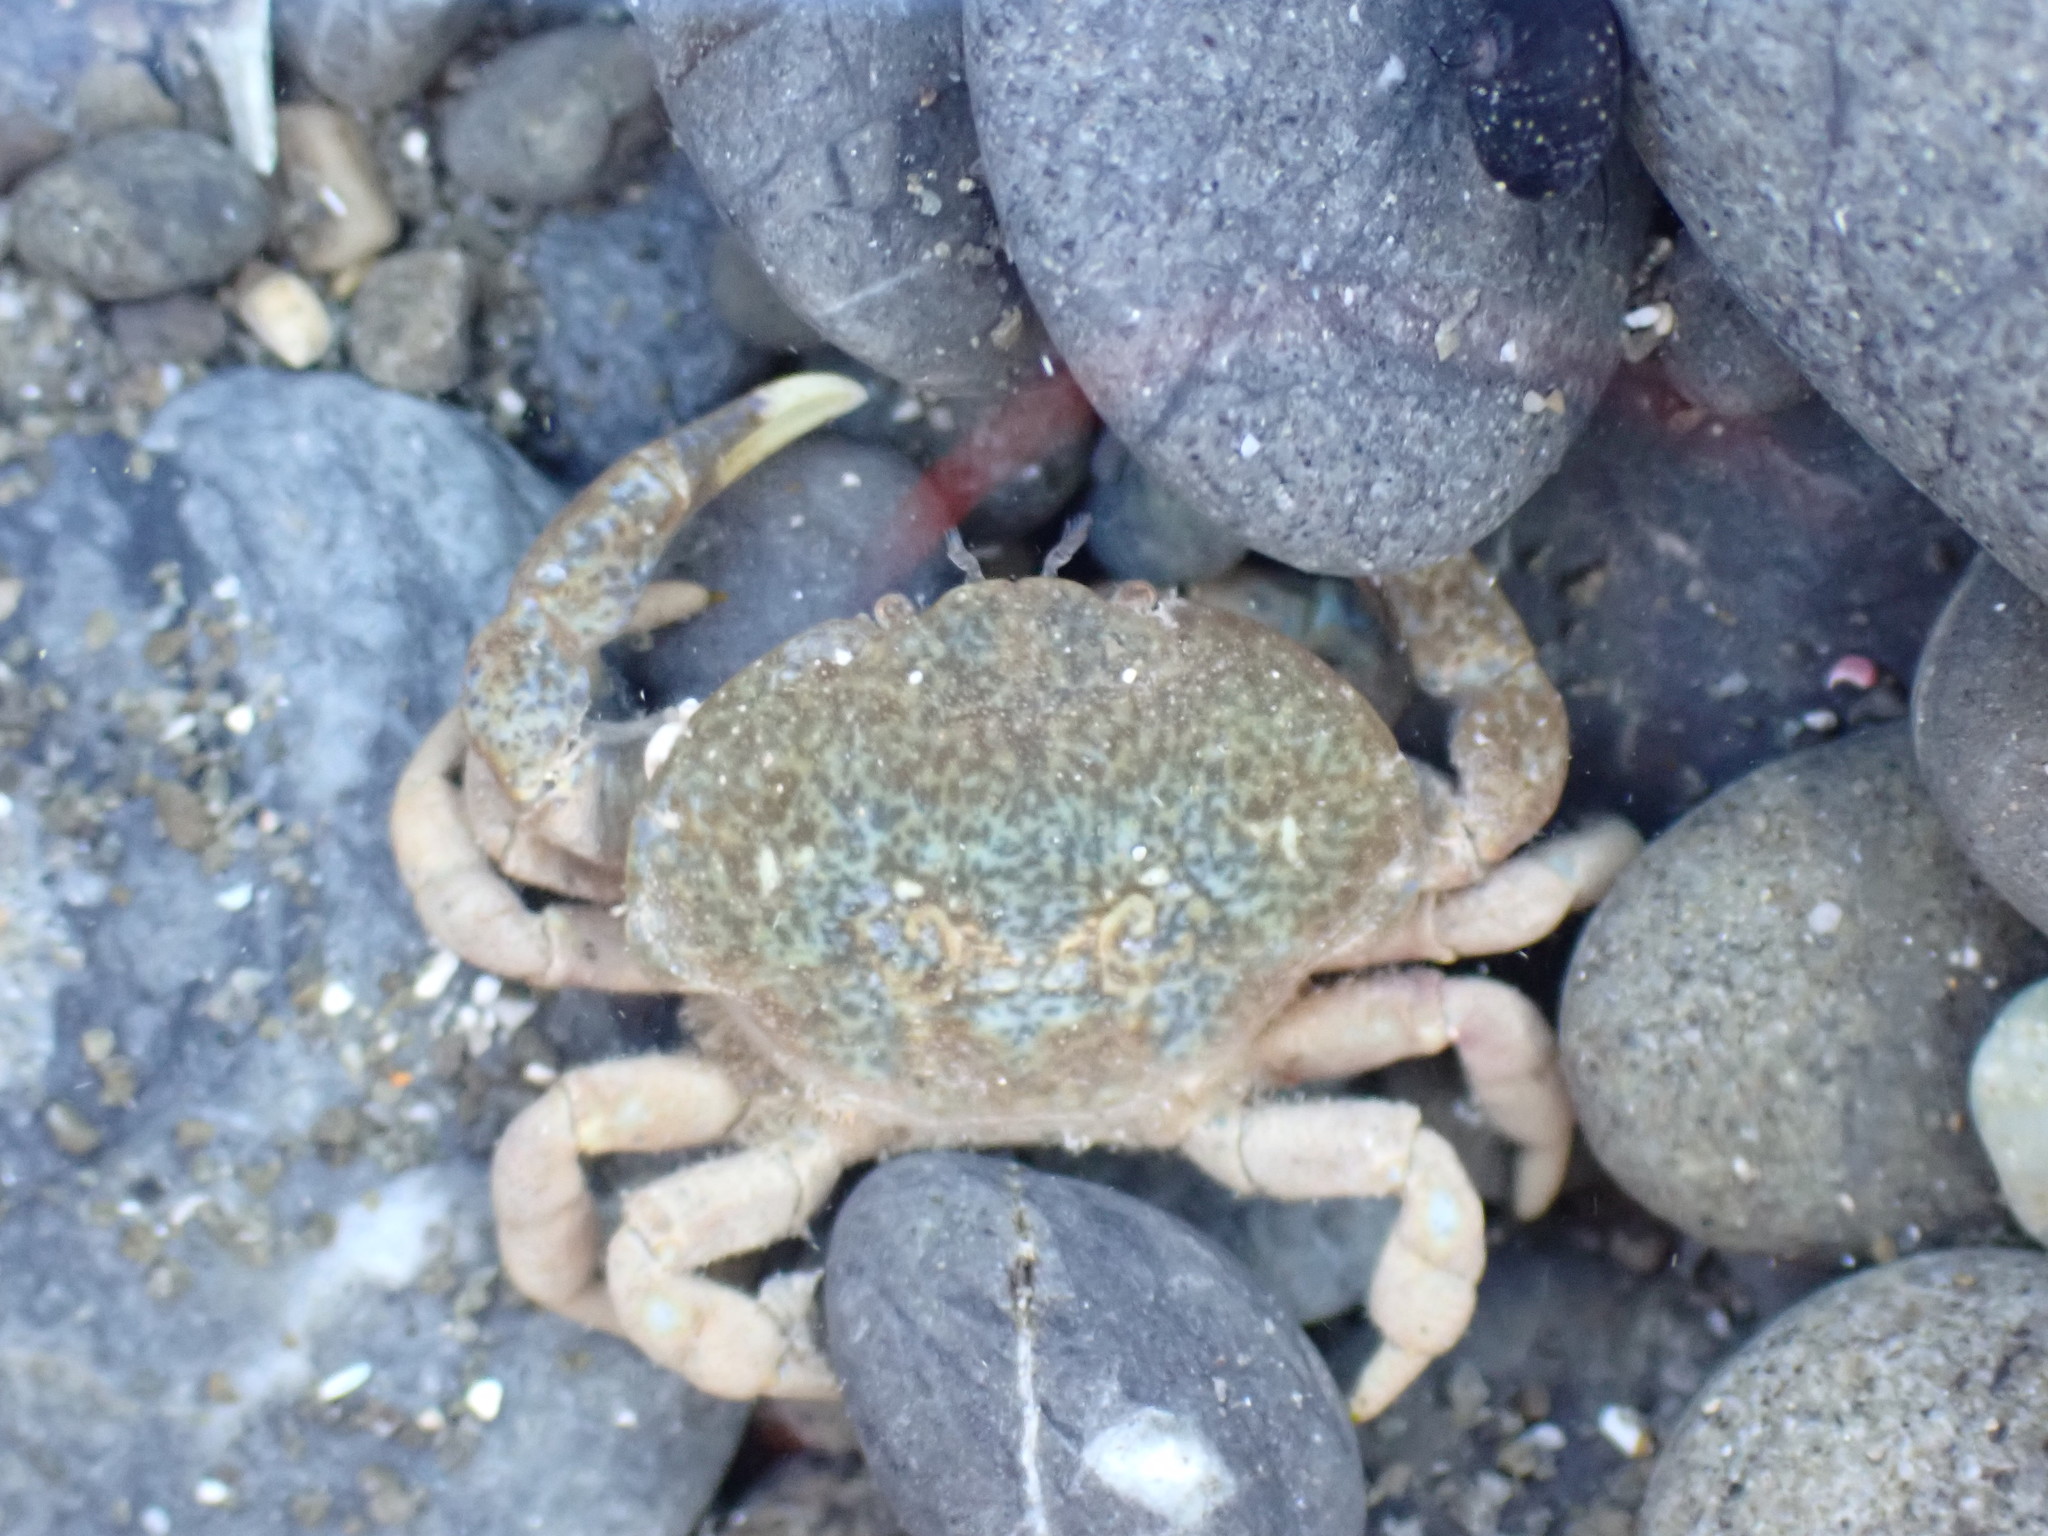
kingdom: Animalia
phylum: Arthropoda
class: Malacostraca
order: Decapoda
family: Heteroziidae
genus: Heterozius
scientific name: Heterozius rotundifrons
